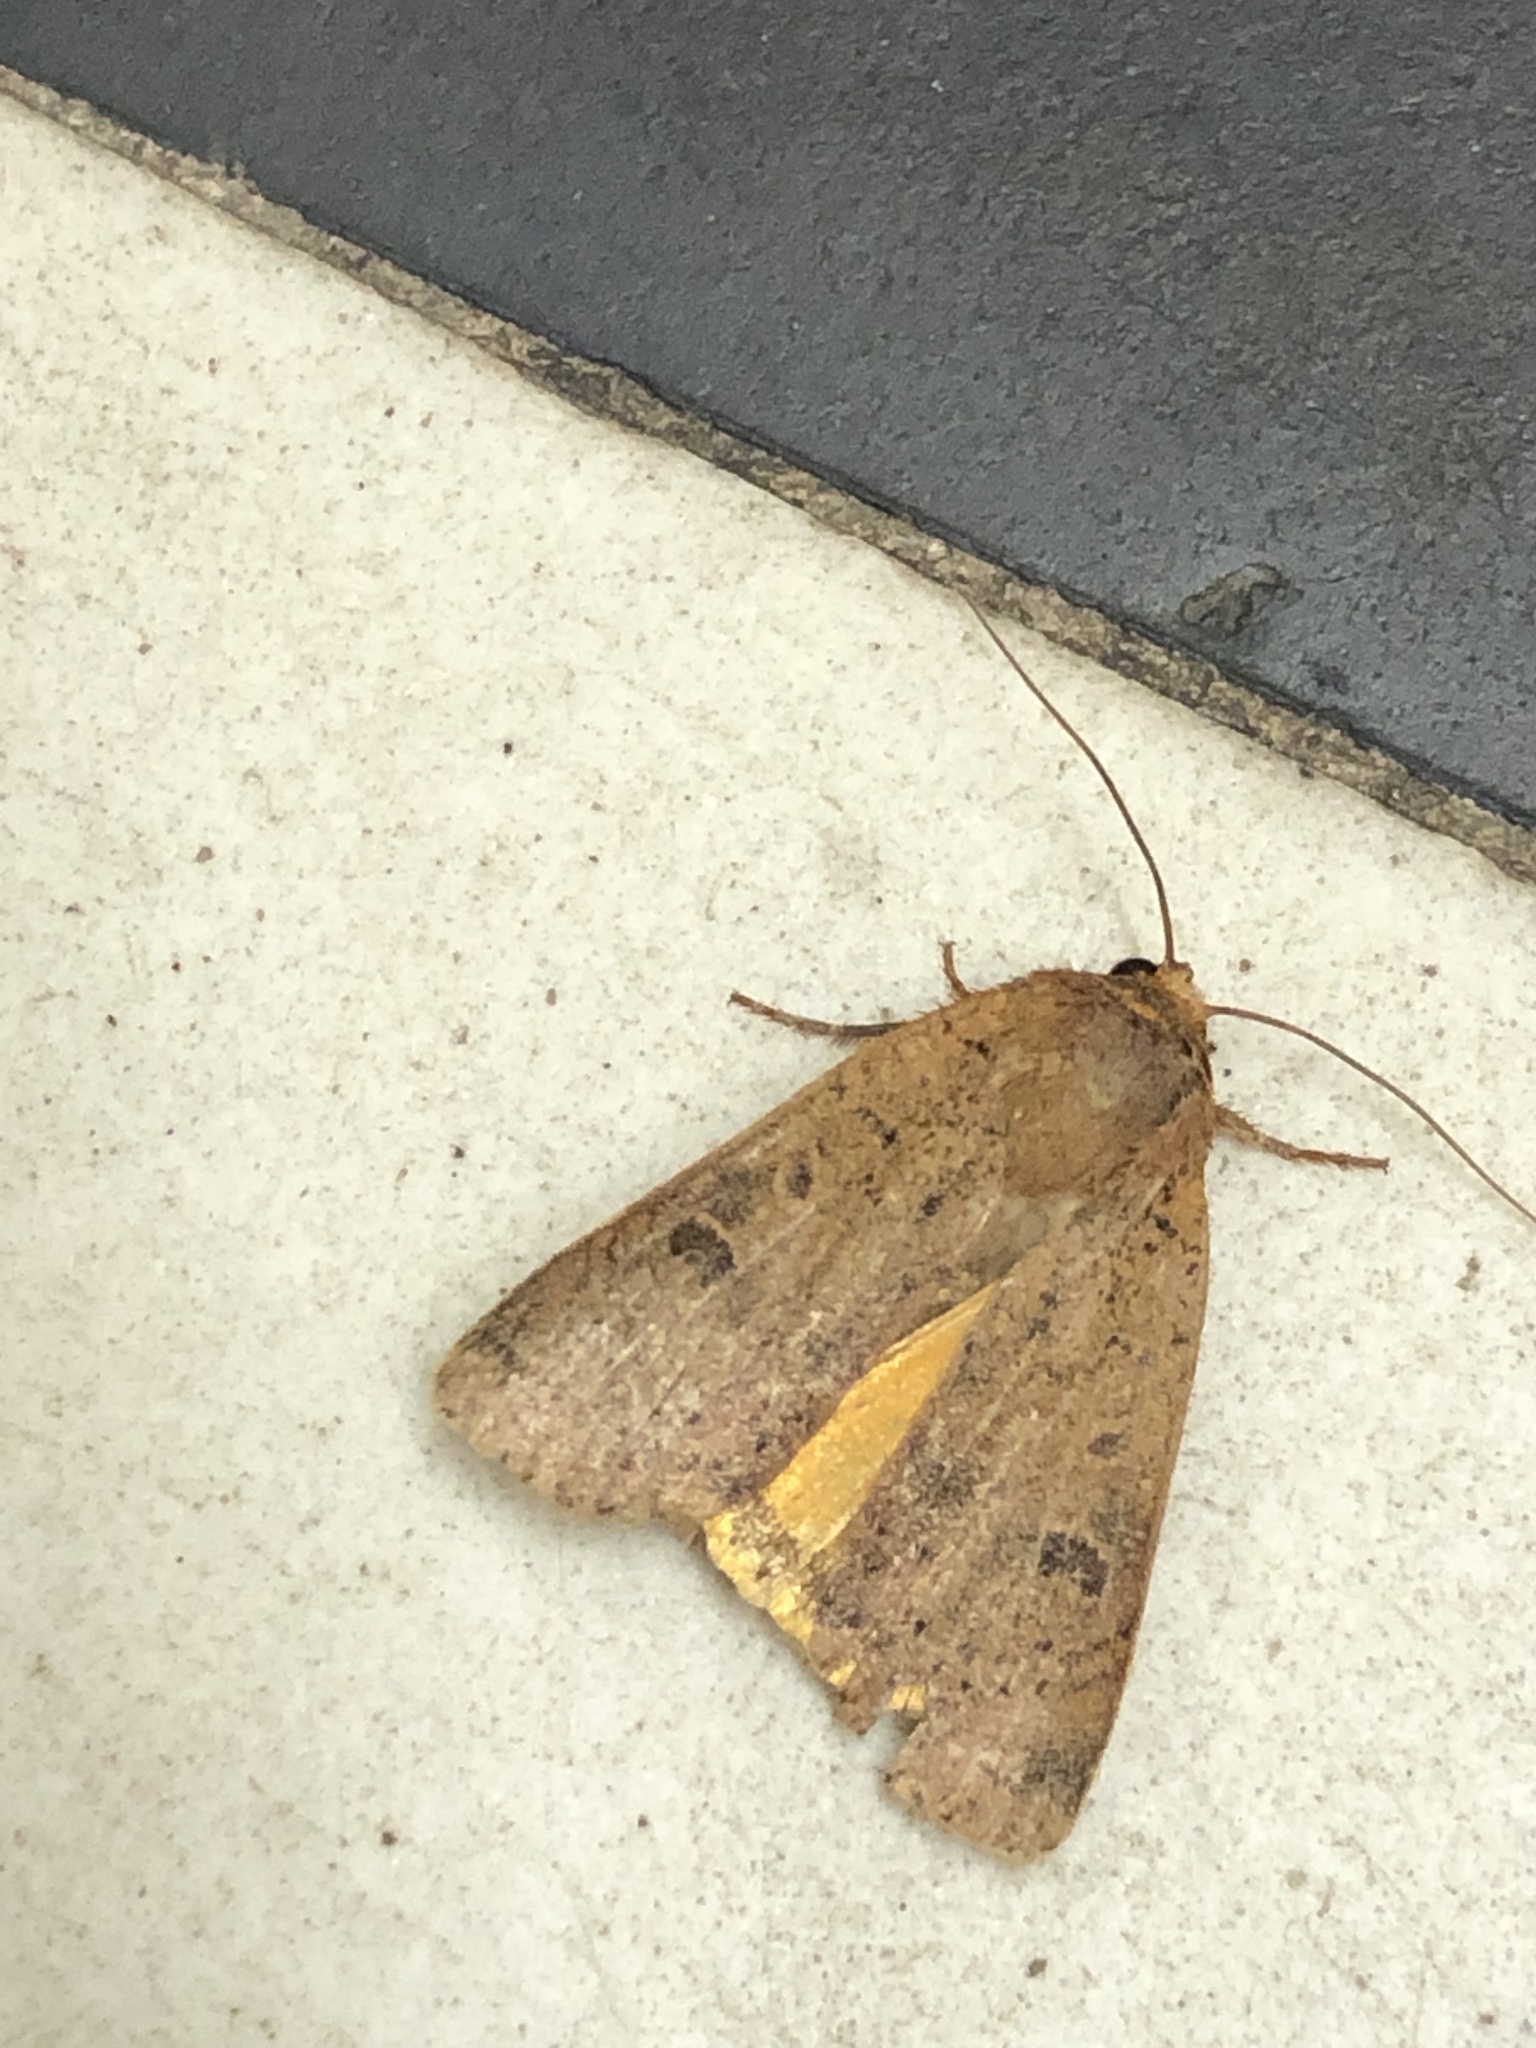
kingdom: Animalia
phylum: Arthropoda
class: Insecta
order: Lepidoptera
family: Noctuidae
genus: Noctua
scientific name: Noctua comes
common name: Lesser yellow underwing
